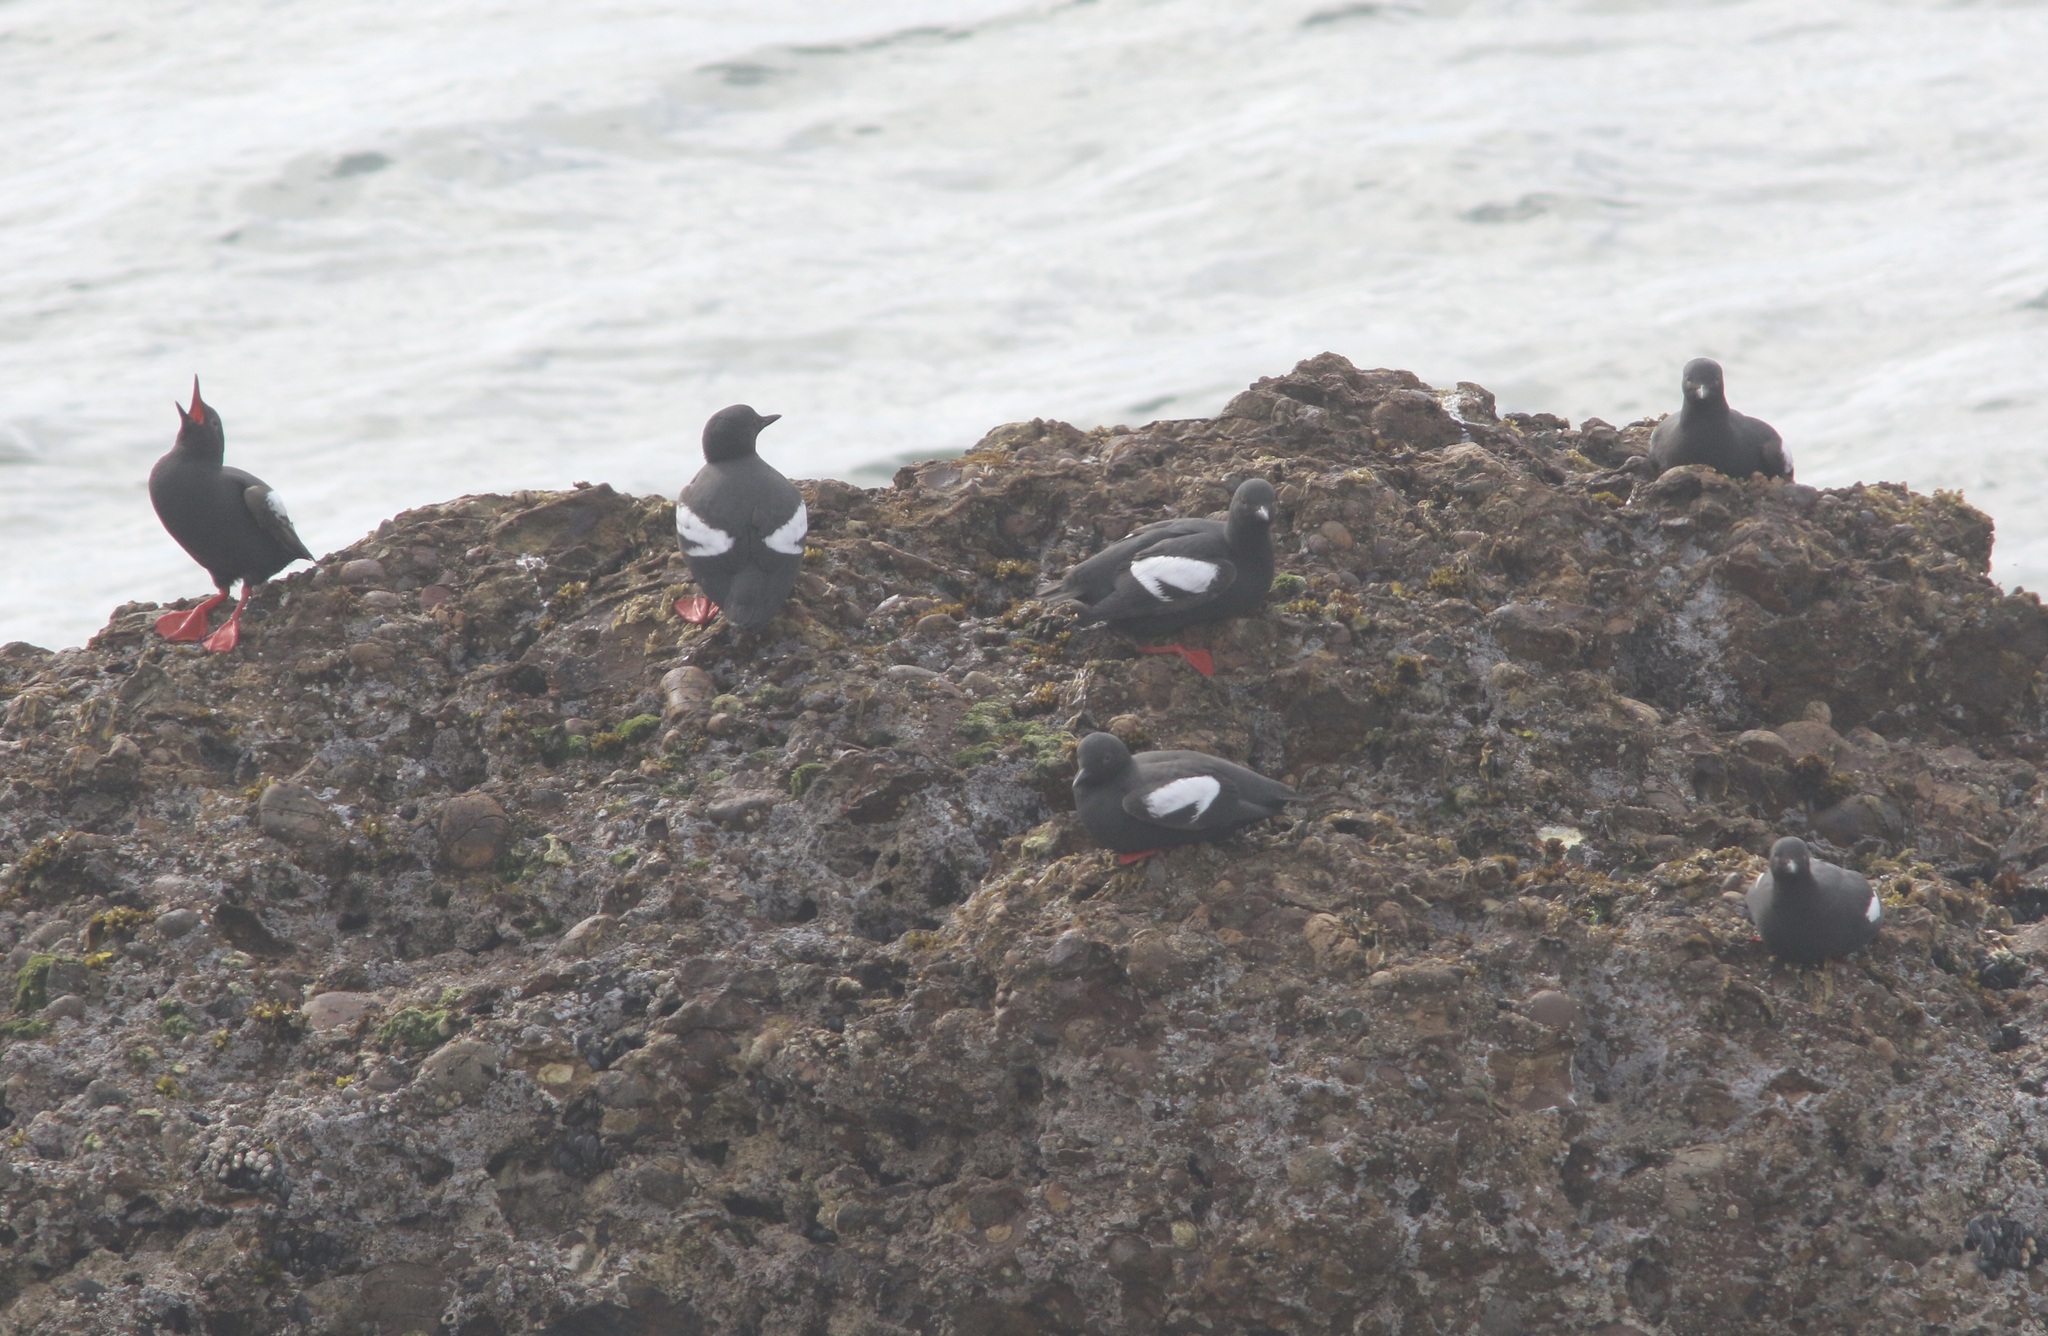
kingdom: Animalia
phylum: Chordata
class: Aves
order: Charadriiformes
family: Alcidae
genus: Cepphus
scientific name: Cepphus columba
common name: Pigeon guillemot
